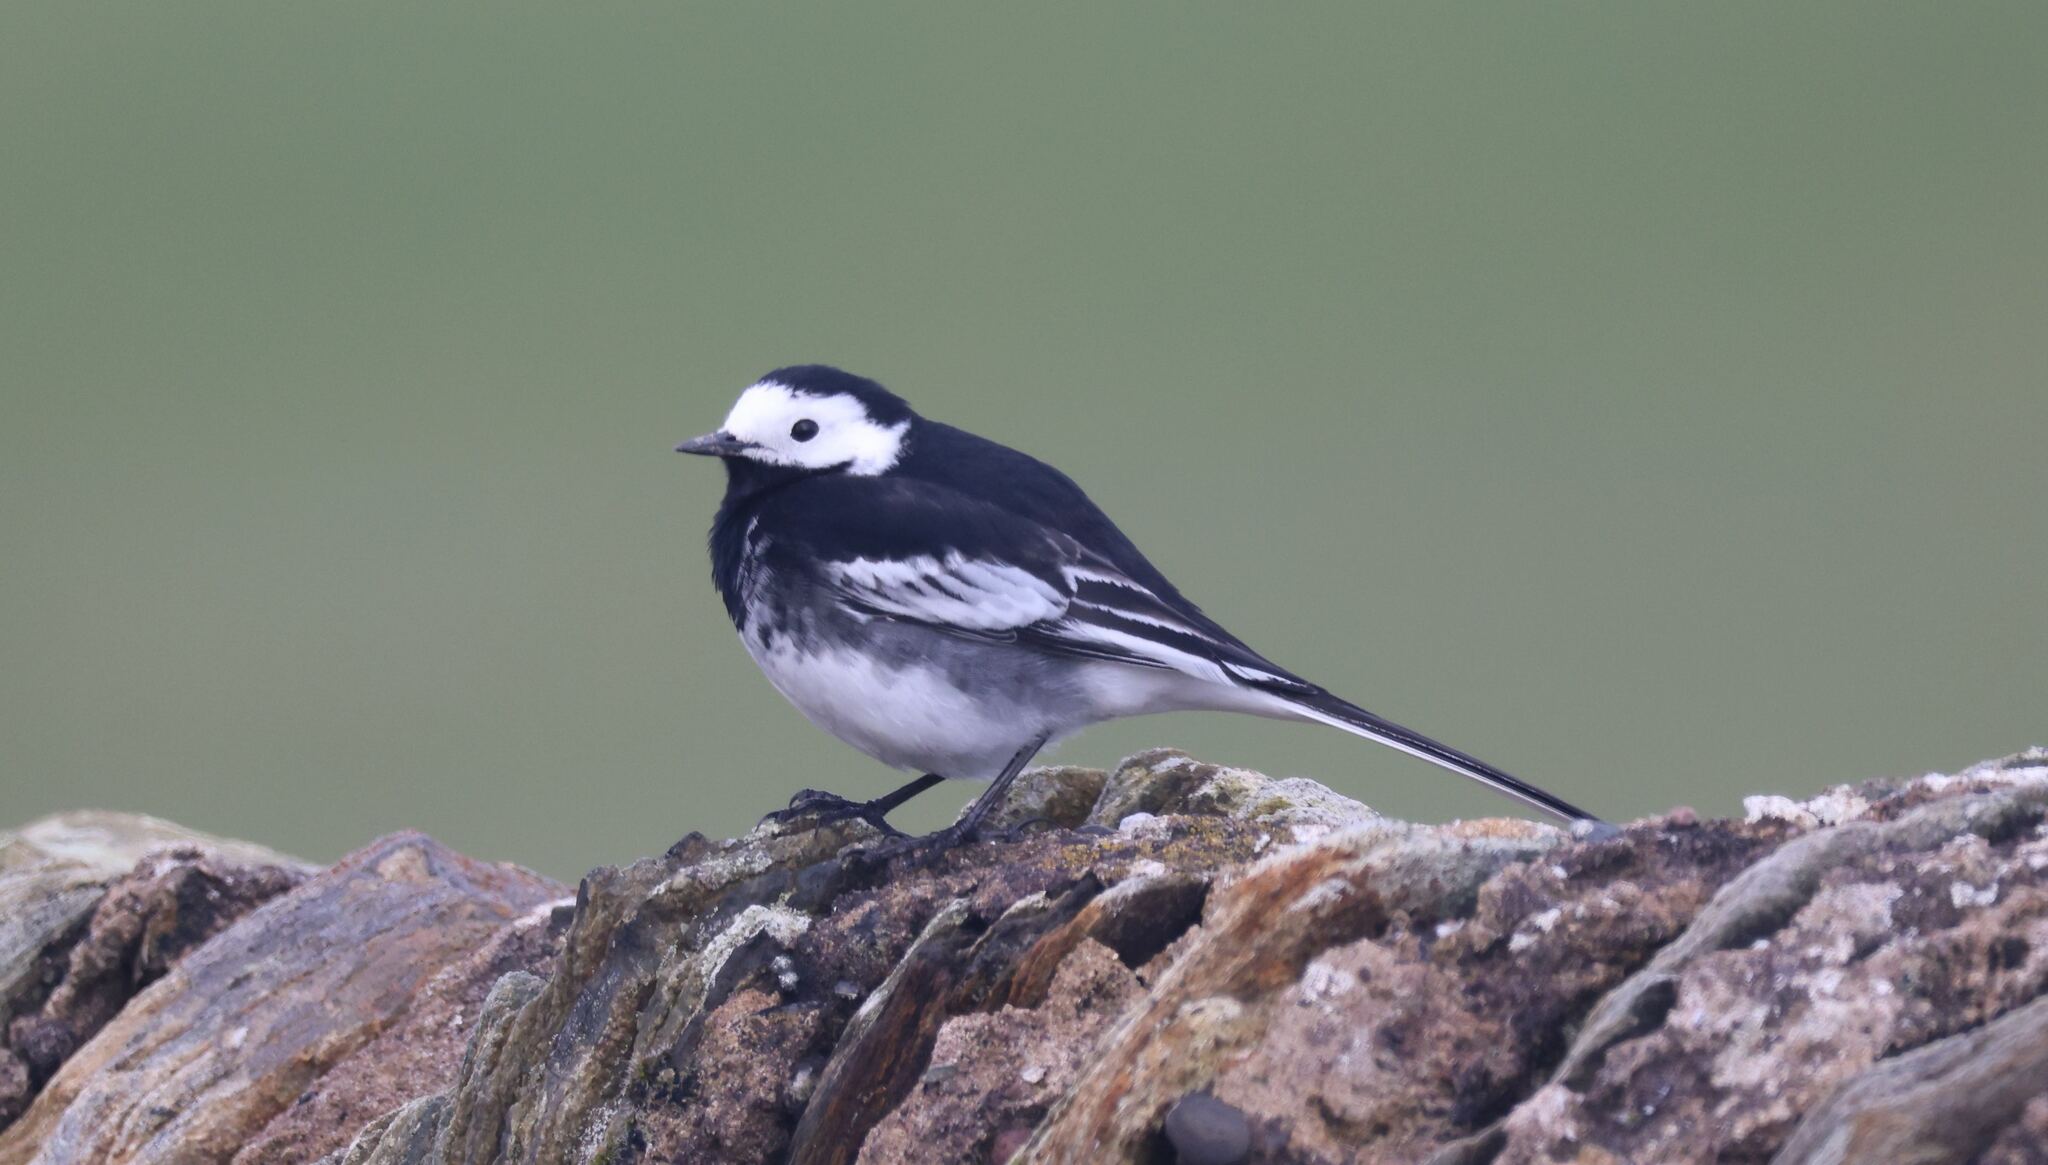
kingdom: Animalia
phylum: Chordata
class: Aves
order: Passeriformes
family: Motacillidae
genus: Motacilla
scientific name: Motacilla alba
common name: White wagtail
